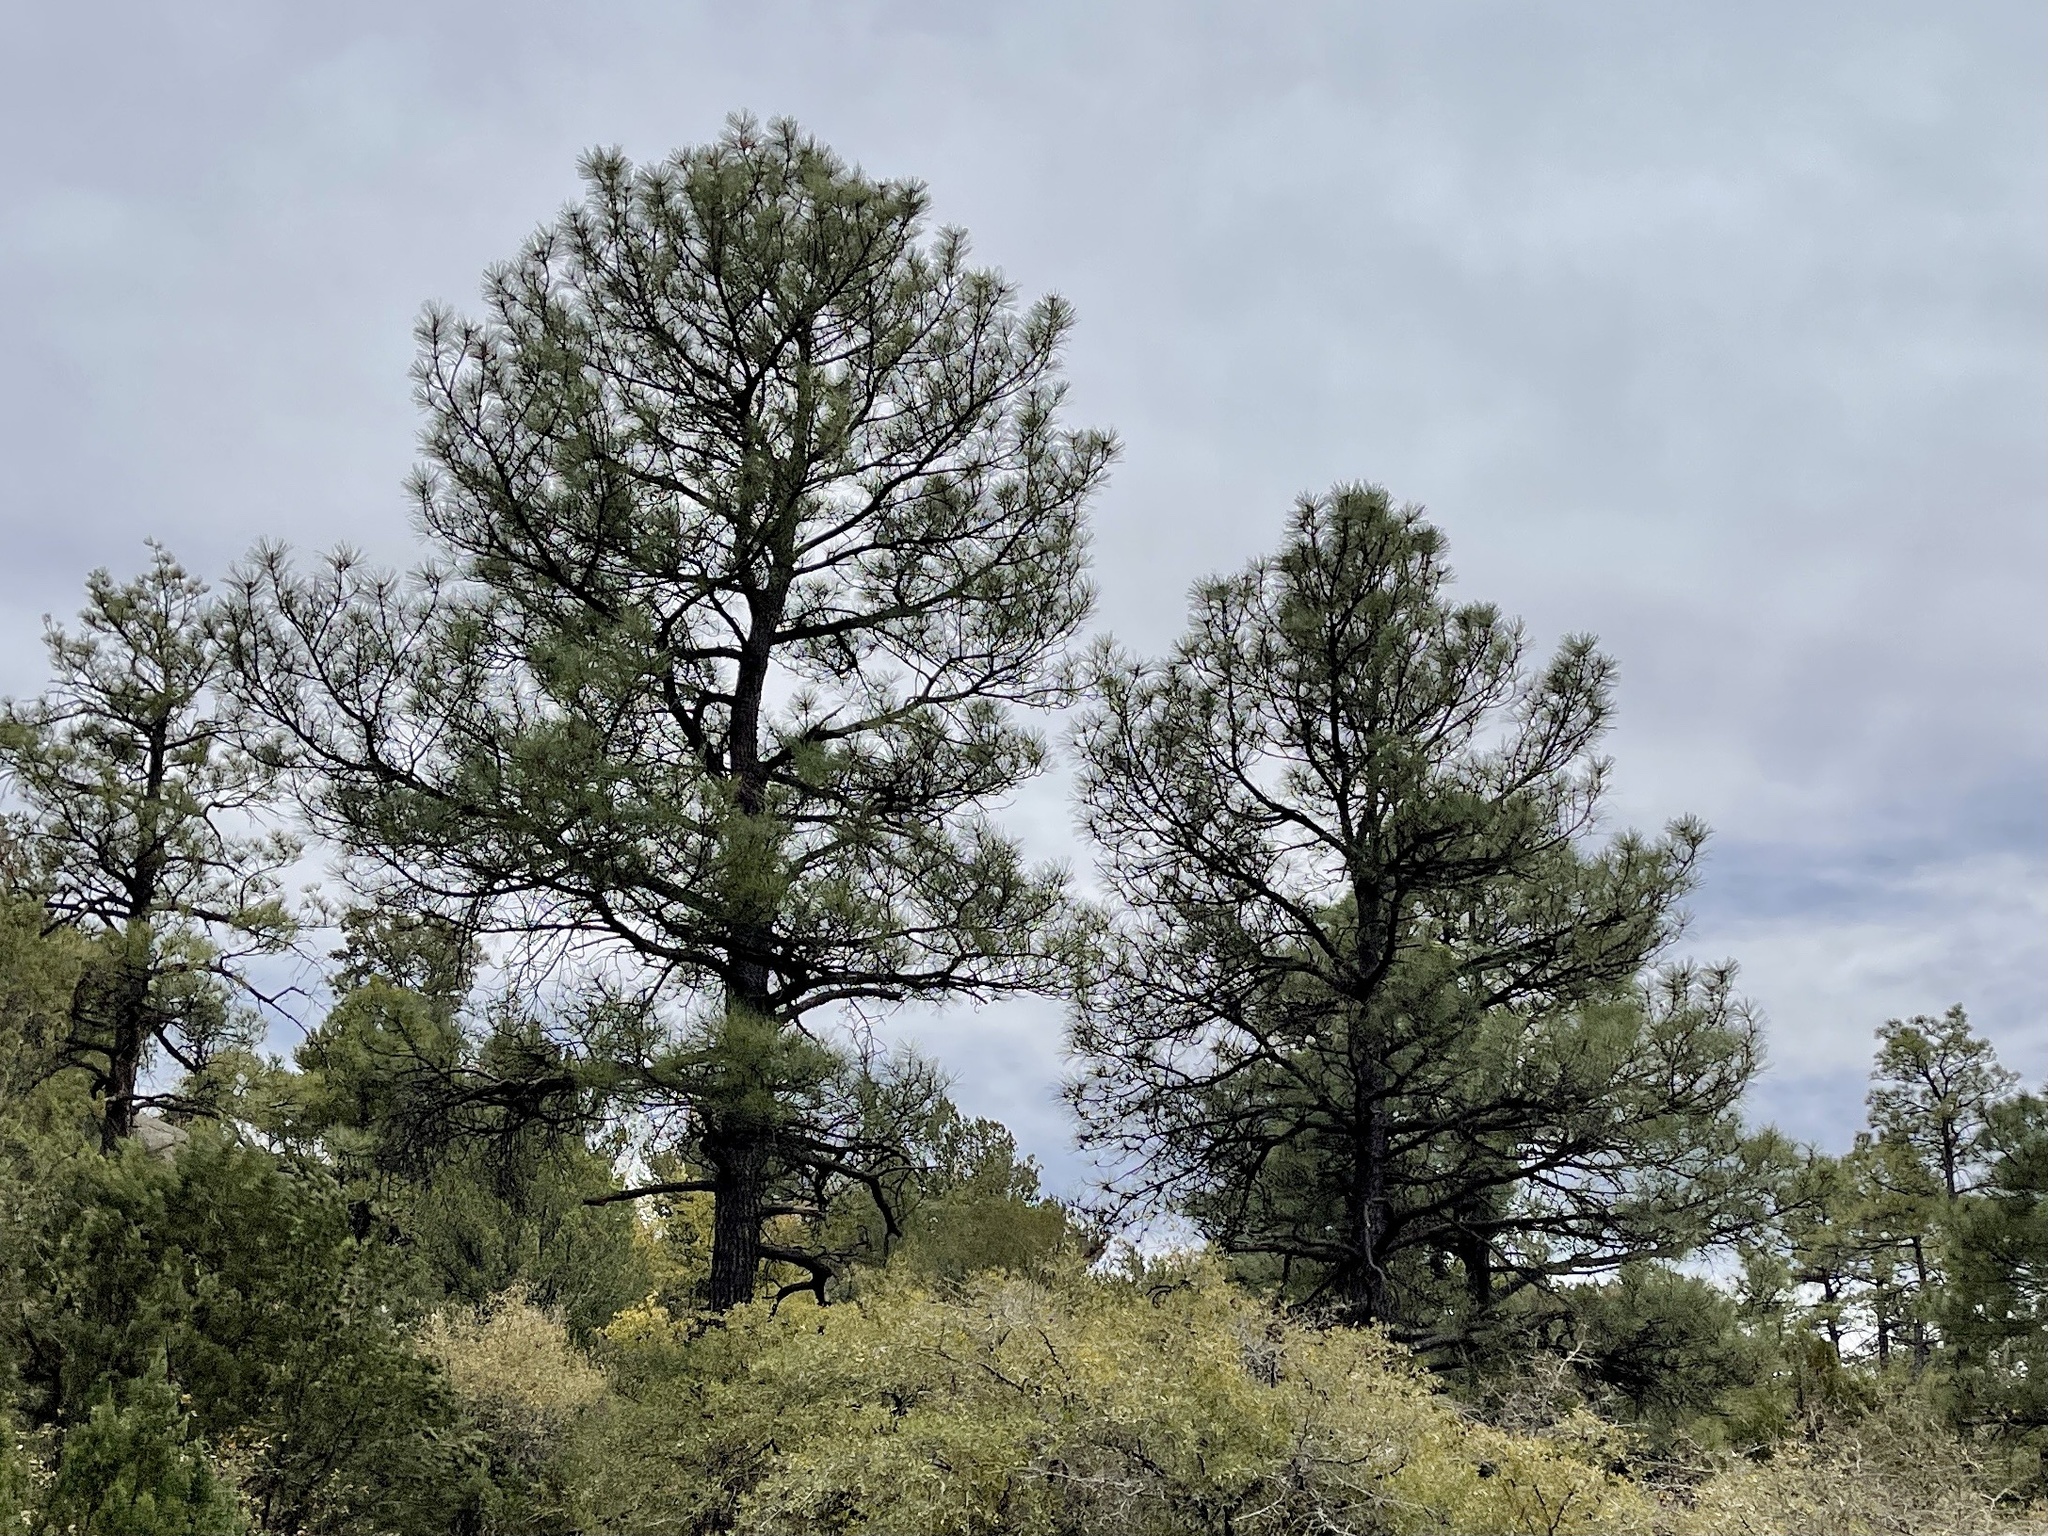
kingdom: Plantae
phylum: Tracheophyta
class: Pinopsida
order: Pinales
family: Pinaceae
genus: Pinus
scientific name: Pinus ponderosa
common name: Western yellow-pine
